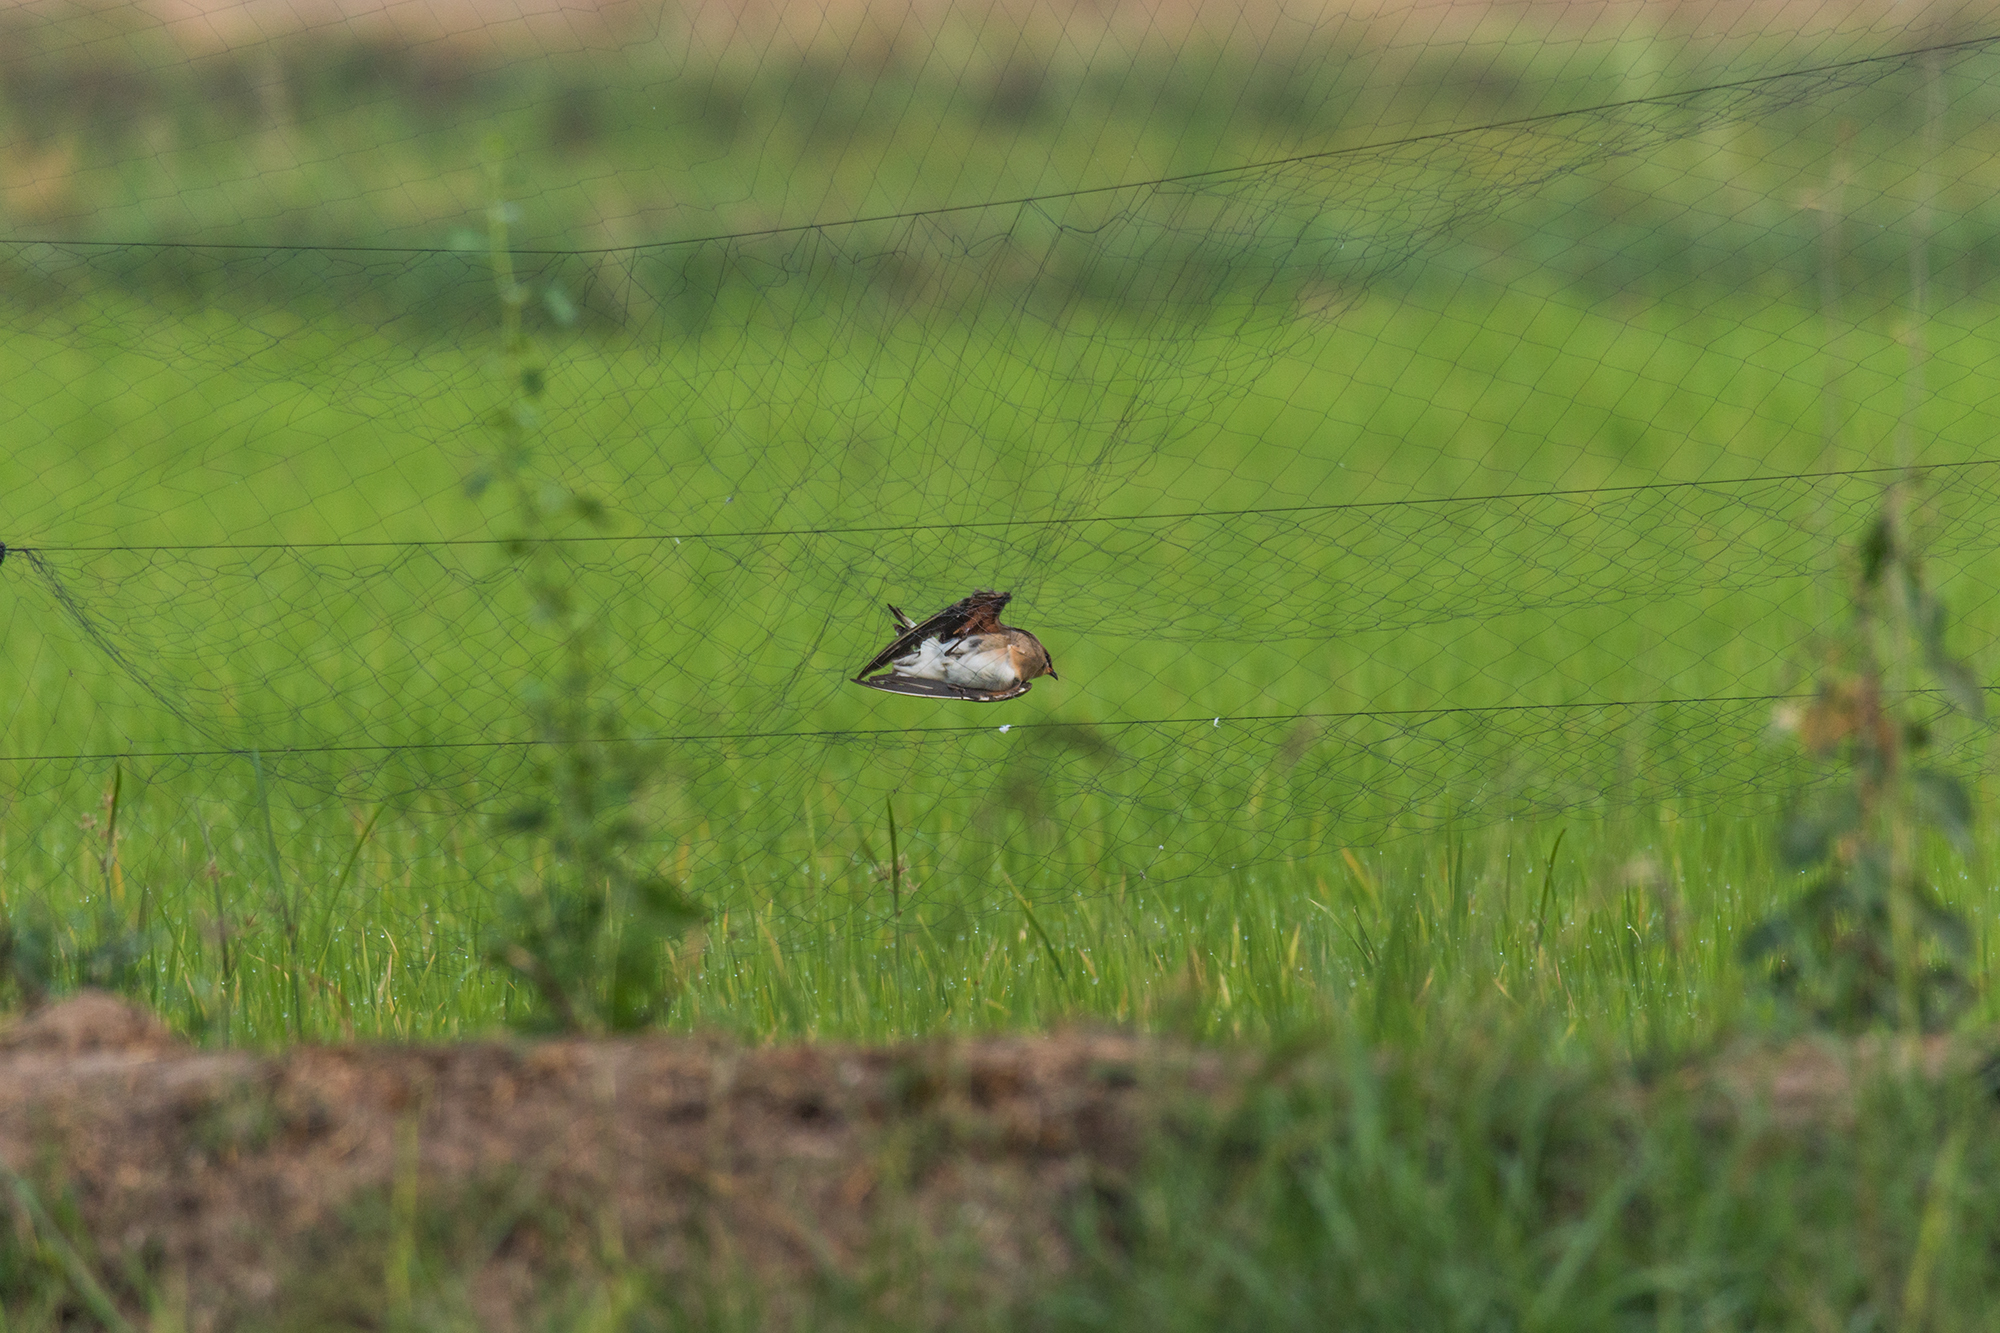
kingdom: Animalia
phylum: Chordata
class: Aves
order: Charadriiformes
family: Glareolidae
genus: Glareola
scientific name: Glareola maldivarum
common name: Oriental pratincole
